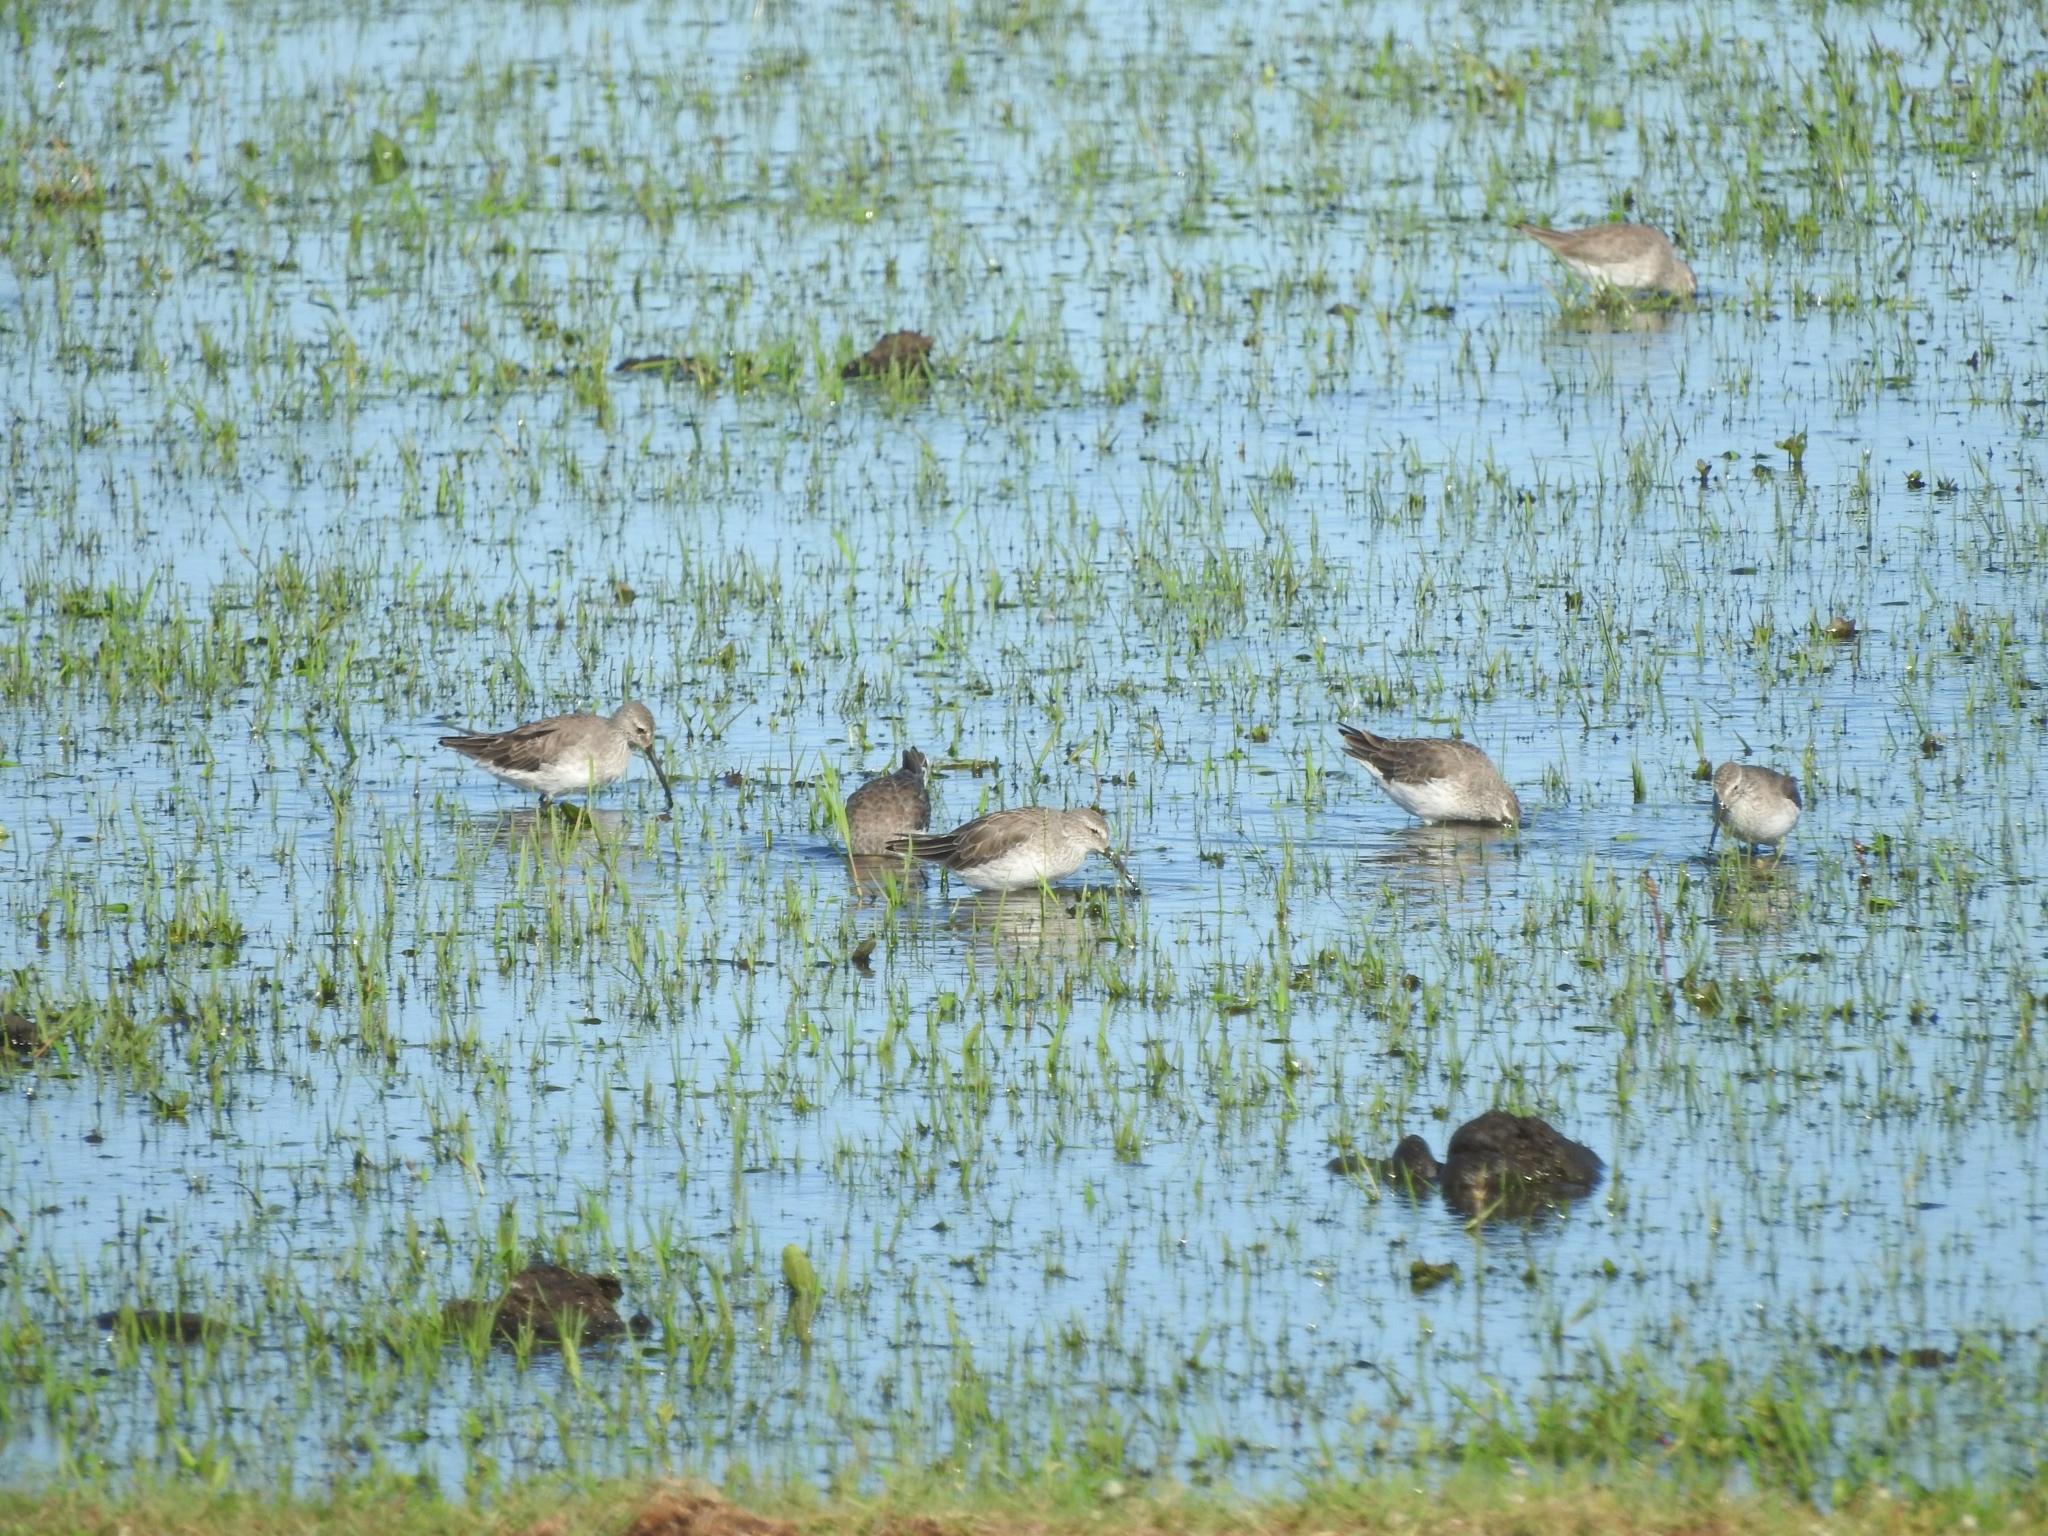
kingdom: Animalia
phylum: Chordata
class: Aves
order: Charadriiformes
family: Scolopacidae
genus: Calidris
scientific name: Calidris himantopus
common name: Stilt sandpiper
